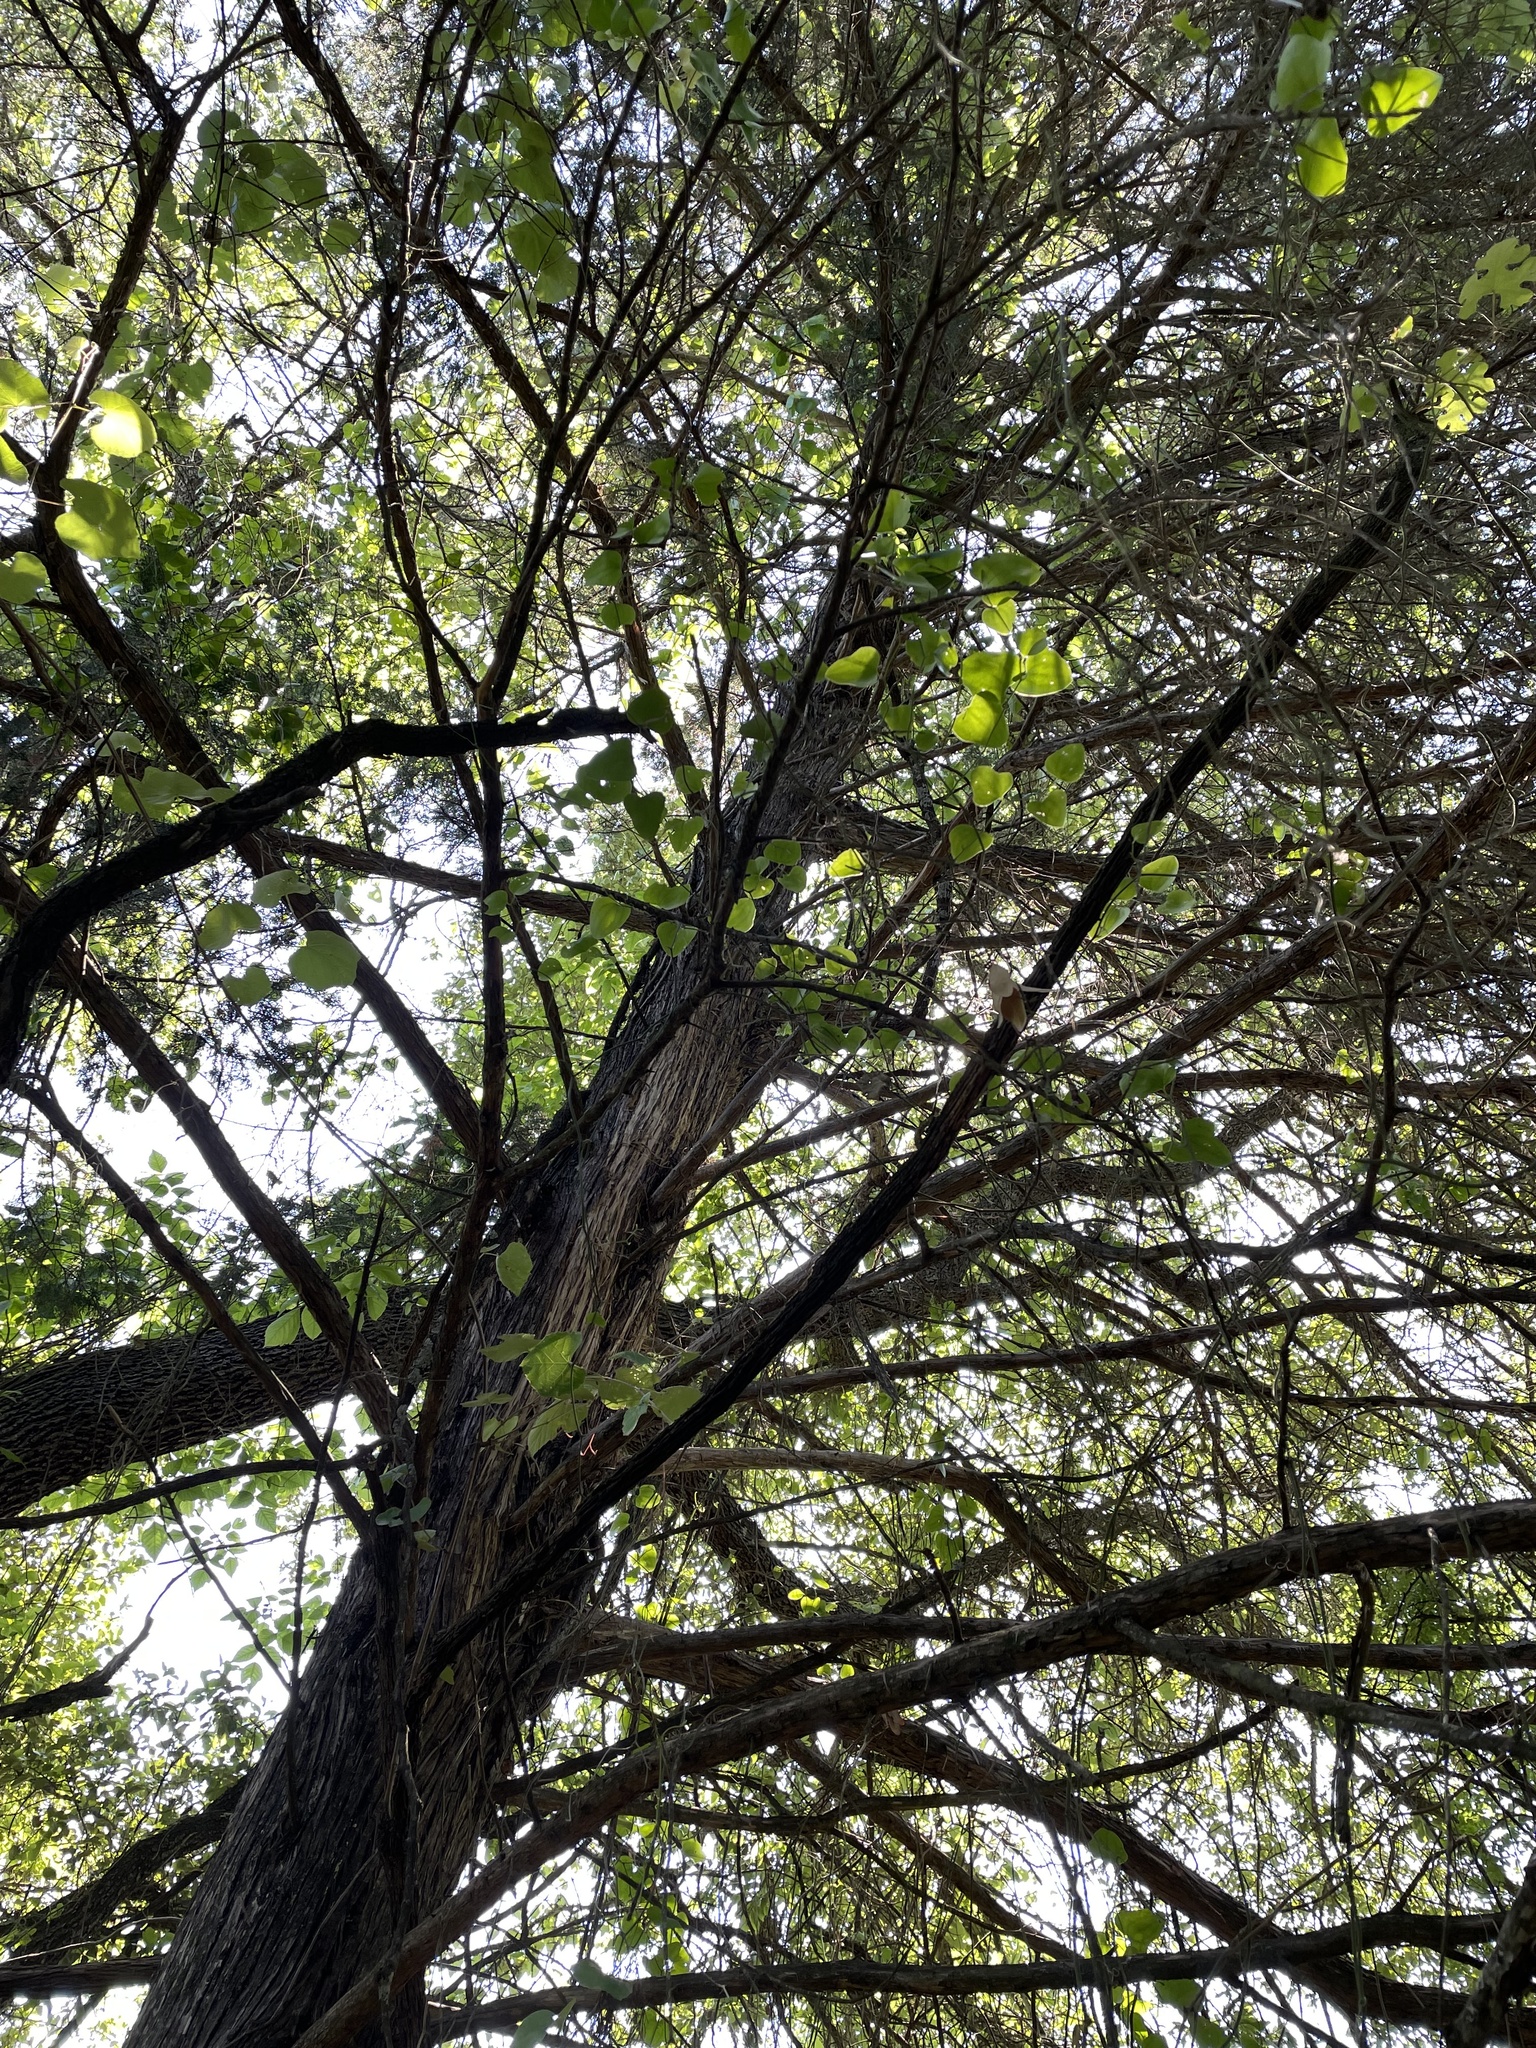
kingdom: Plantae
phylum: Tracheophyta
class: Pinopsida
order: Pinales
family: Cupressaceae
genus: Juniperus
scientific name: Juniperus virginiana
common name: Red juniper
